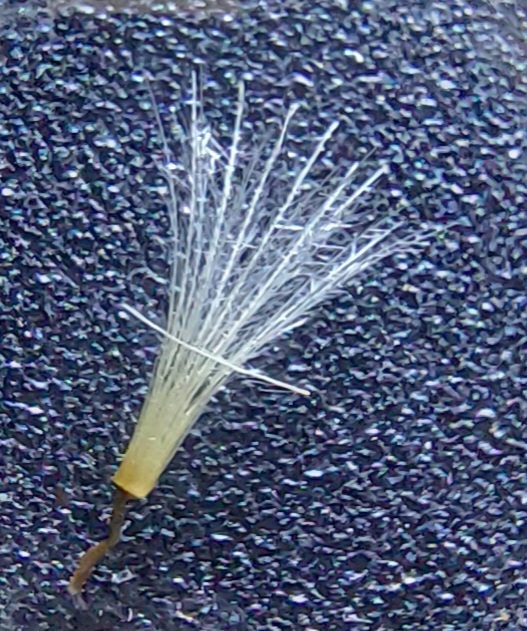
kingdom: Plantae
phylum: Tracheophyta
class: Magnoliopsida
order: Asterales
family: Asteraceae
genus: Picris
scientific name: Picris hieracioides
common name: Hawkweed oxtongue
